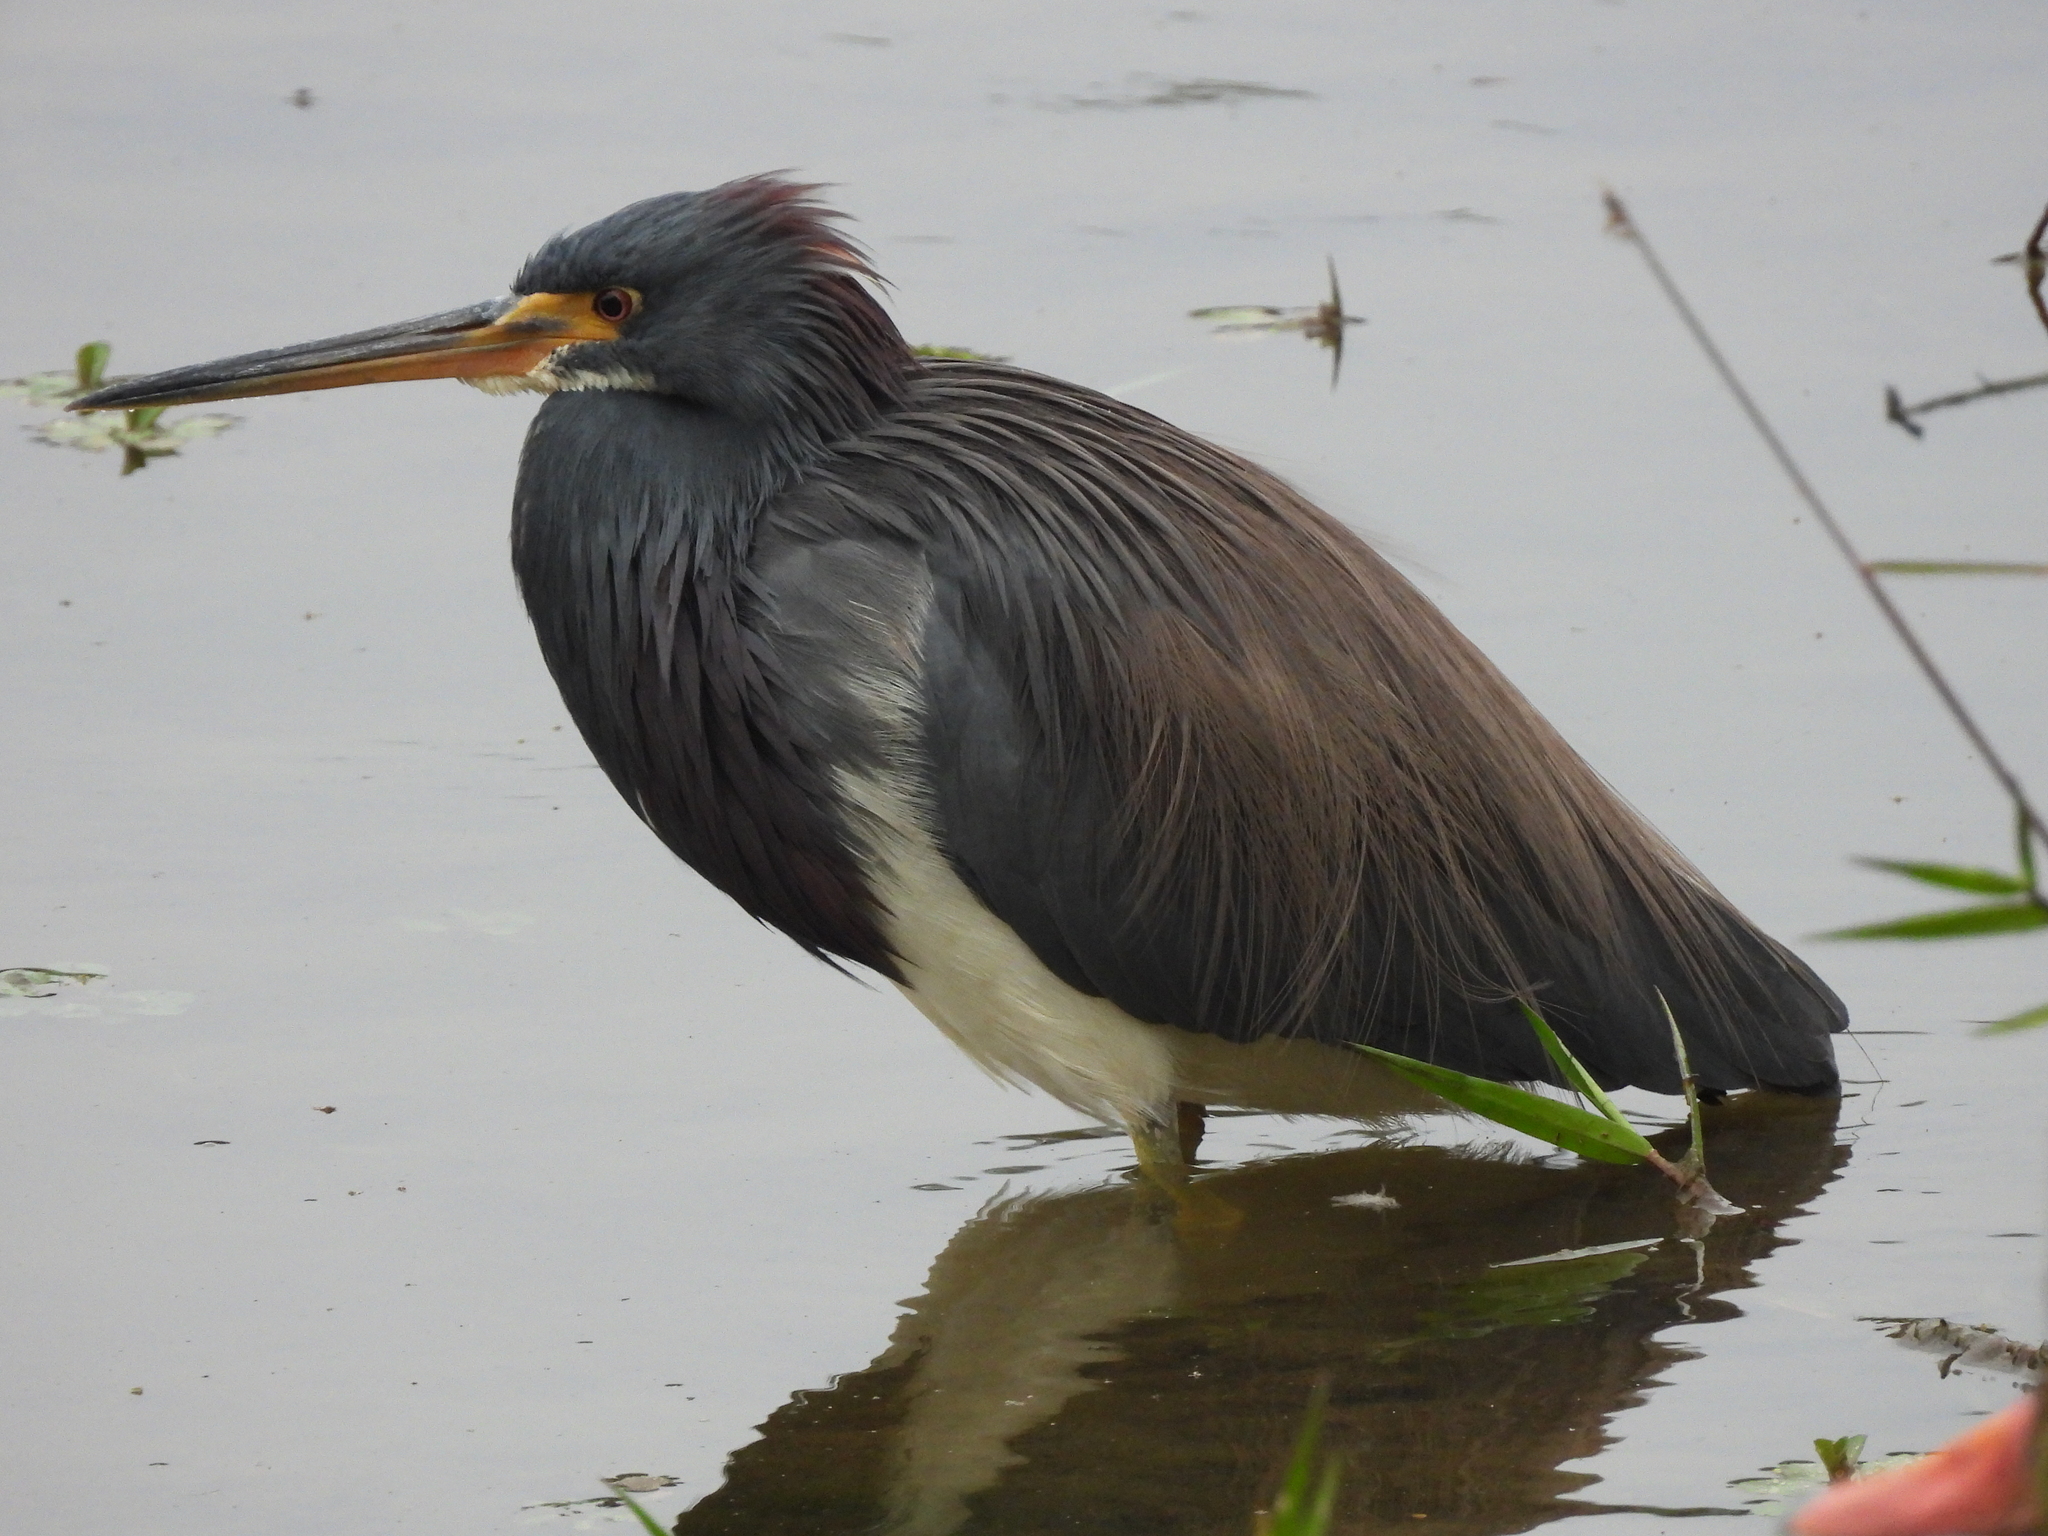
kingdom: Animalia
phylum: Chordata
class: Aves
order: Pelecaniformes
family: Ardeidae
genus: Egretta
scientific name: Egretta tricolor
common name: Tricolored heron
